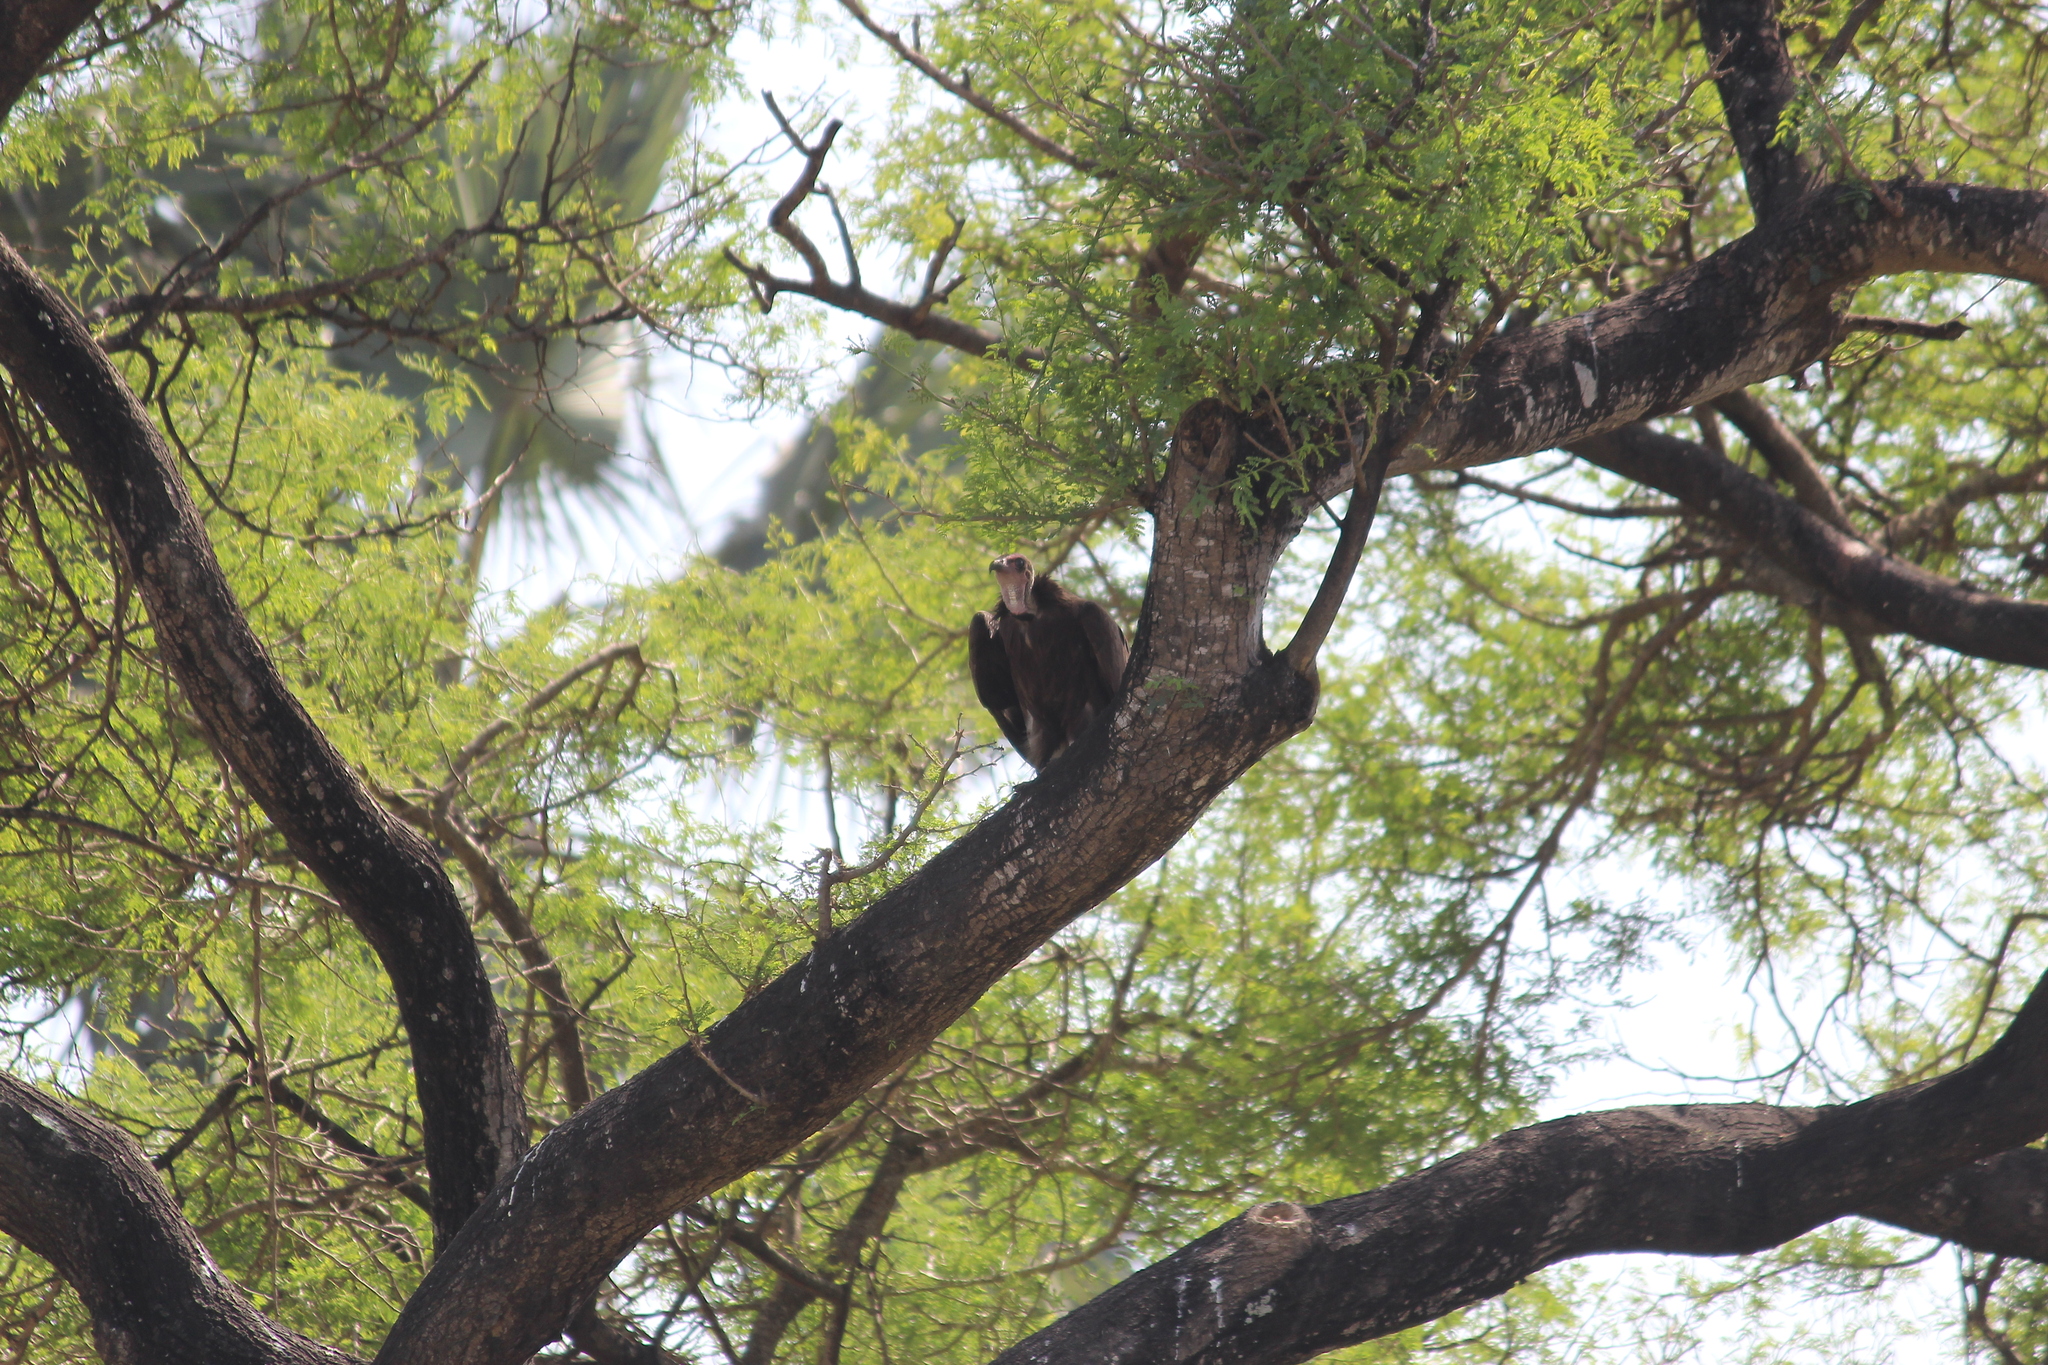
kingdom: Animalia
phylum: Chordata
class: Aves
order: Accipitriformes
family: Accipitridae
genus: Necrosyrtes
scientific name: Necrosyrtes monachus
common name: Hooded vulture
